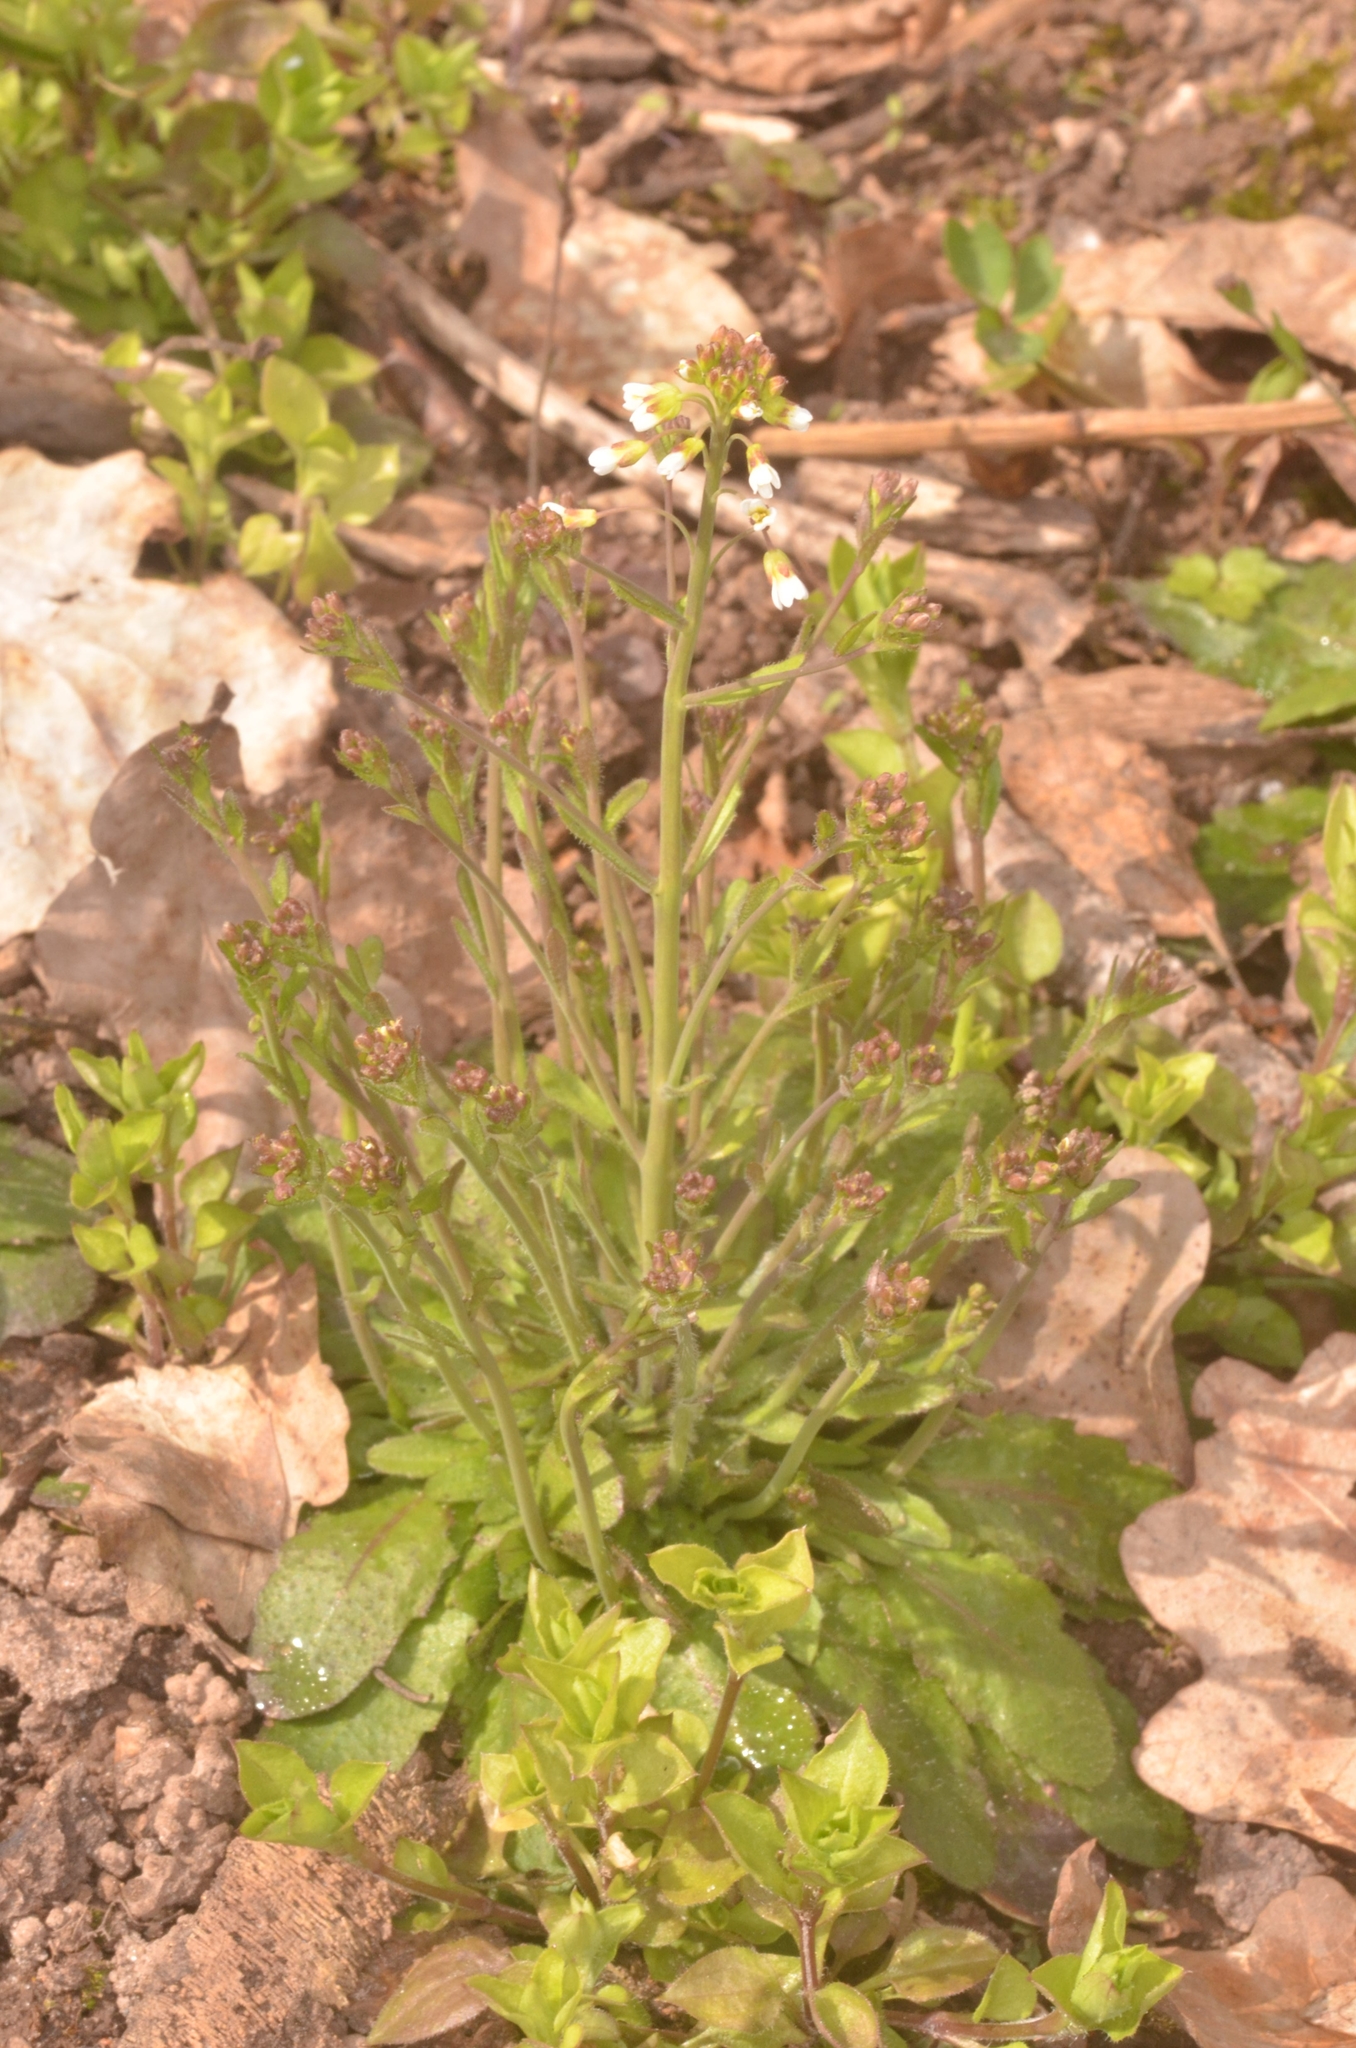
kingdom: Plantae
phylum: Tracheophyta
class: Magnoliopsida
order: Brassicales
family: Brassicaceae
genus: Arabidopsis
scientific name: Arabidopsis thaliana
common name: Thale cress
